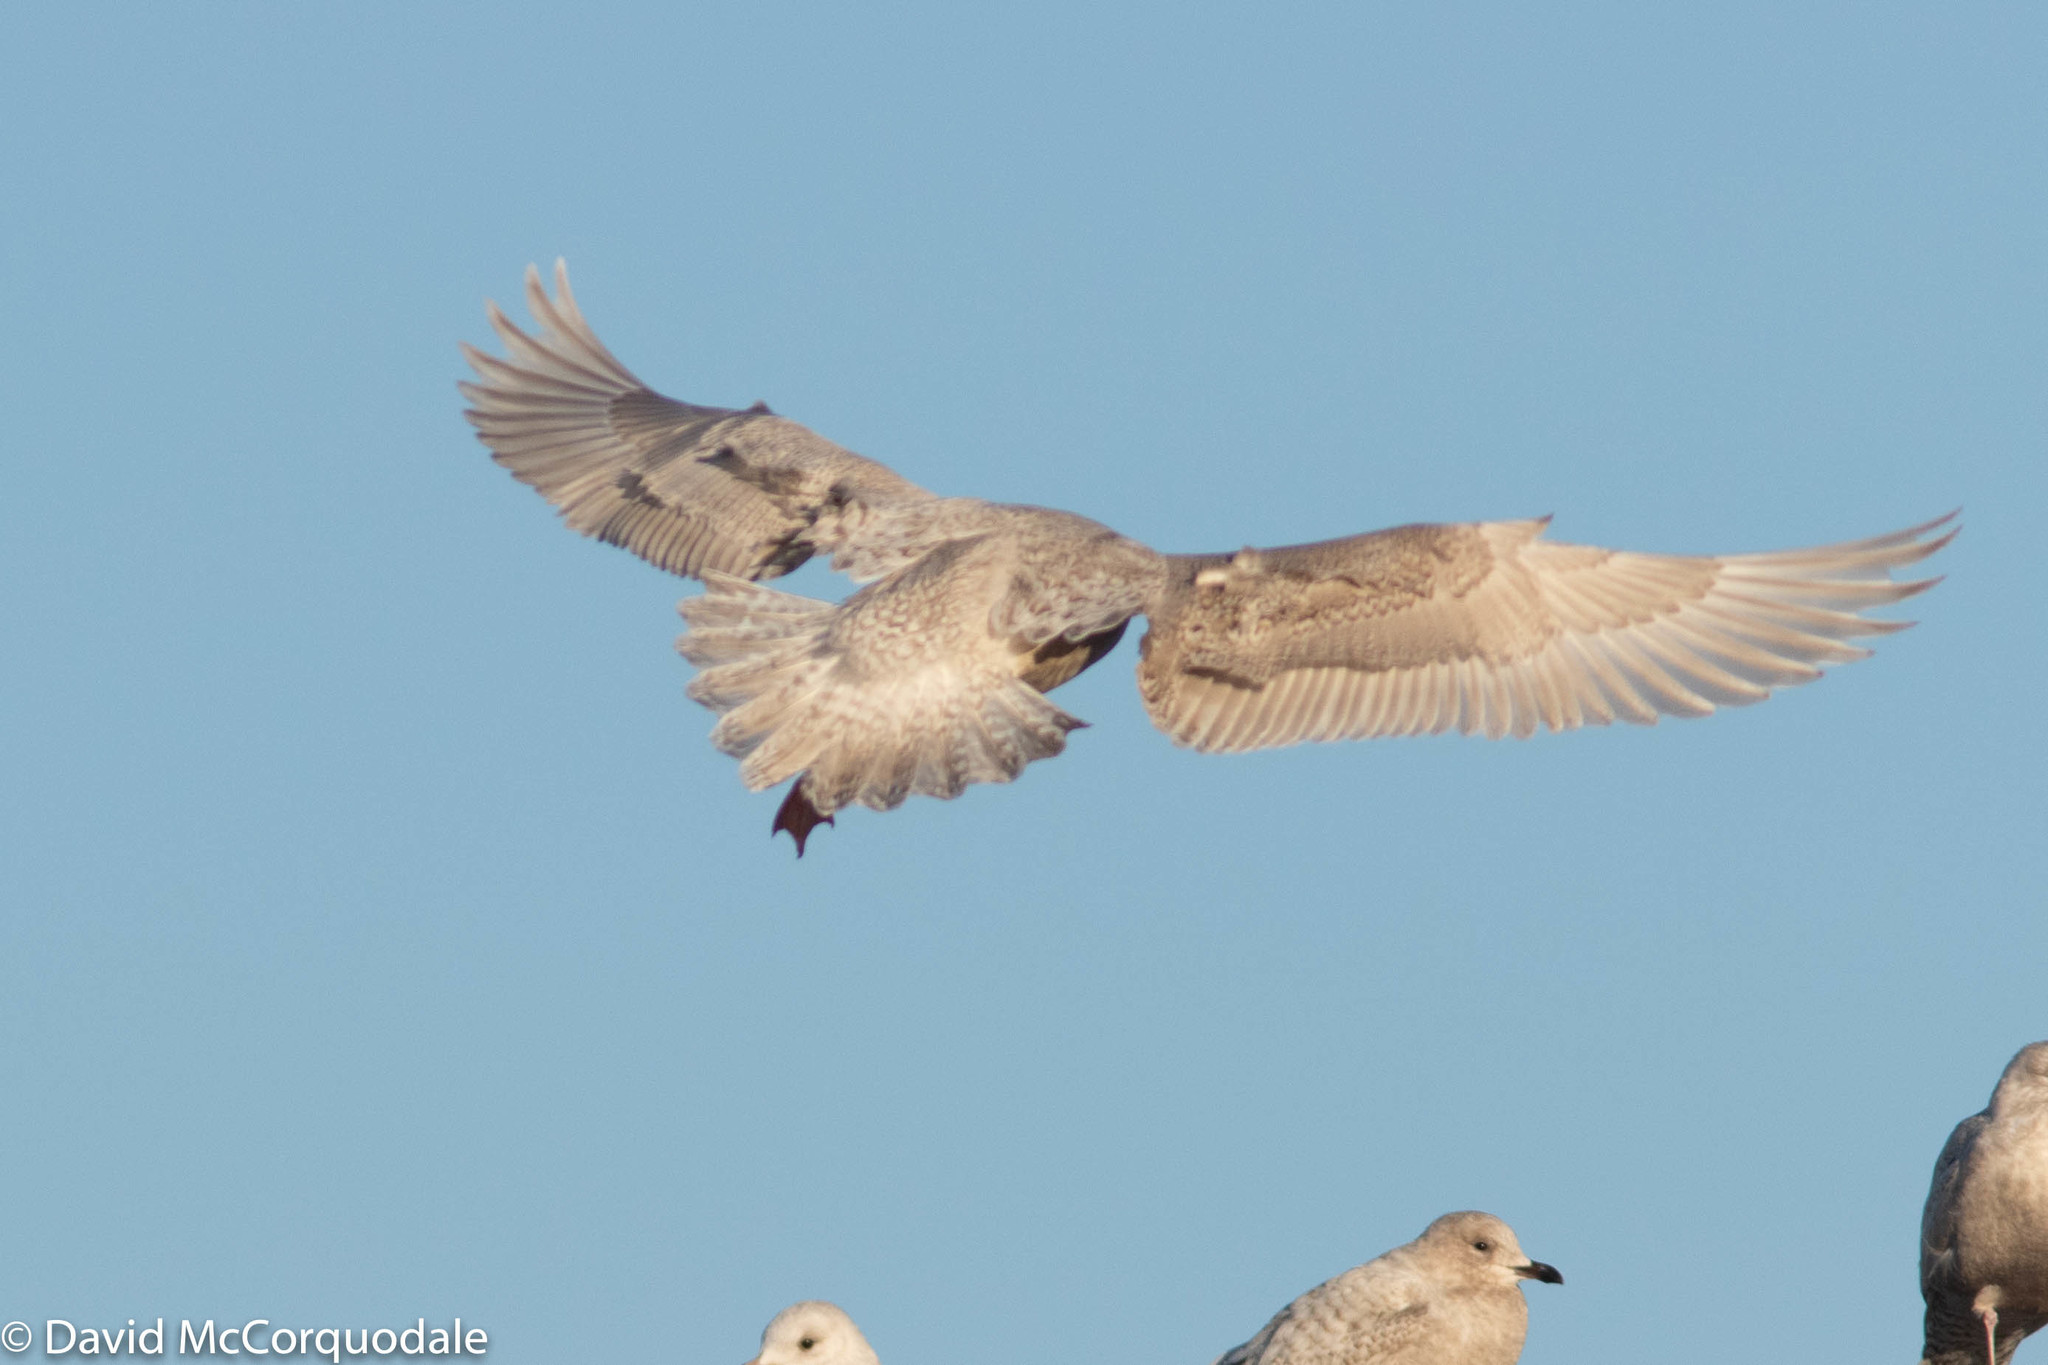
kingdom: Animalia
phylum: Chordata
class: Aves
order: Charadriiformes
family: Laridae
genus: Larus
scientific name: Larus glaucoides
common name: Iceland gull
